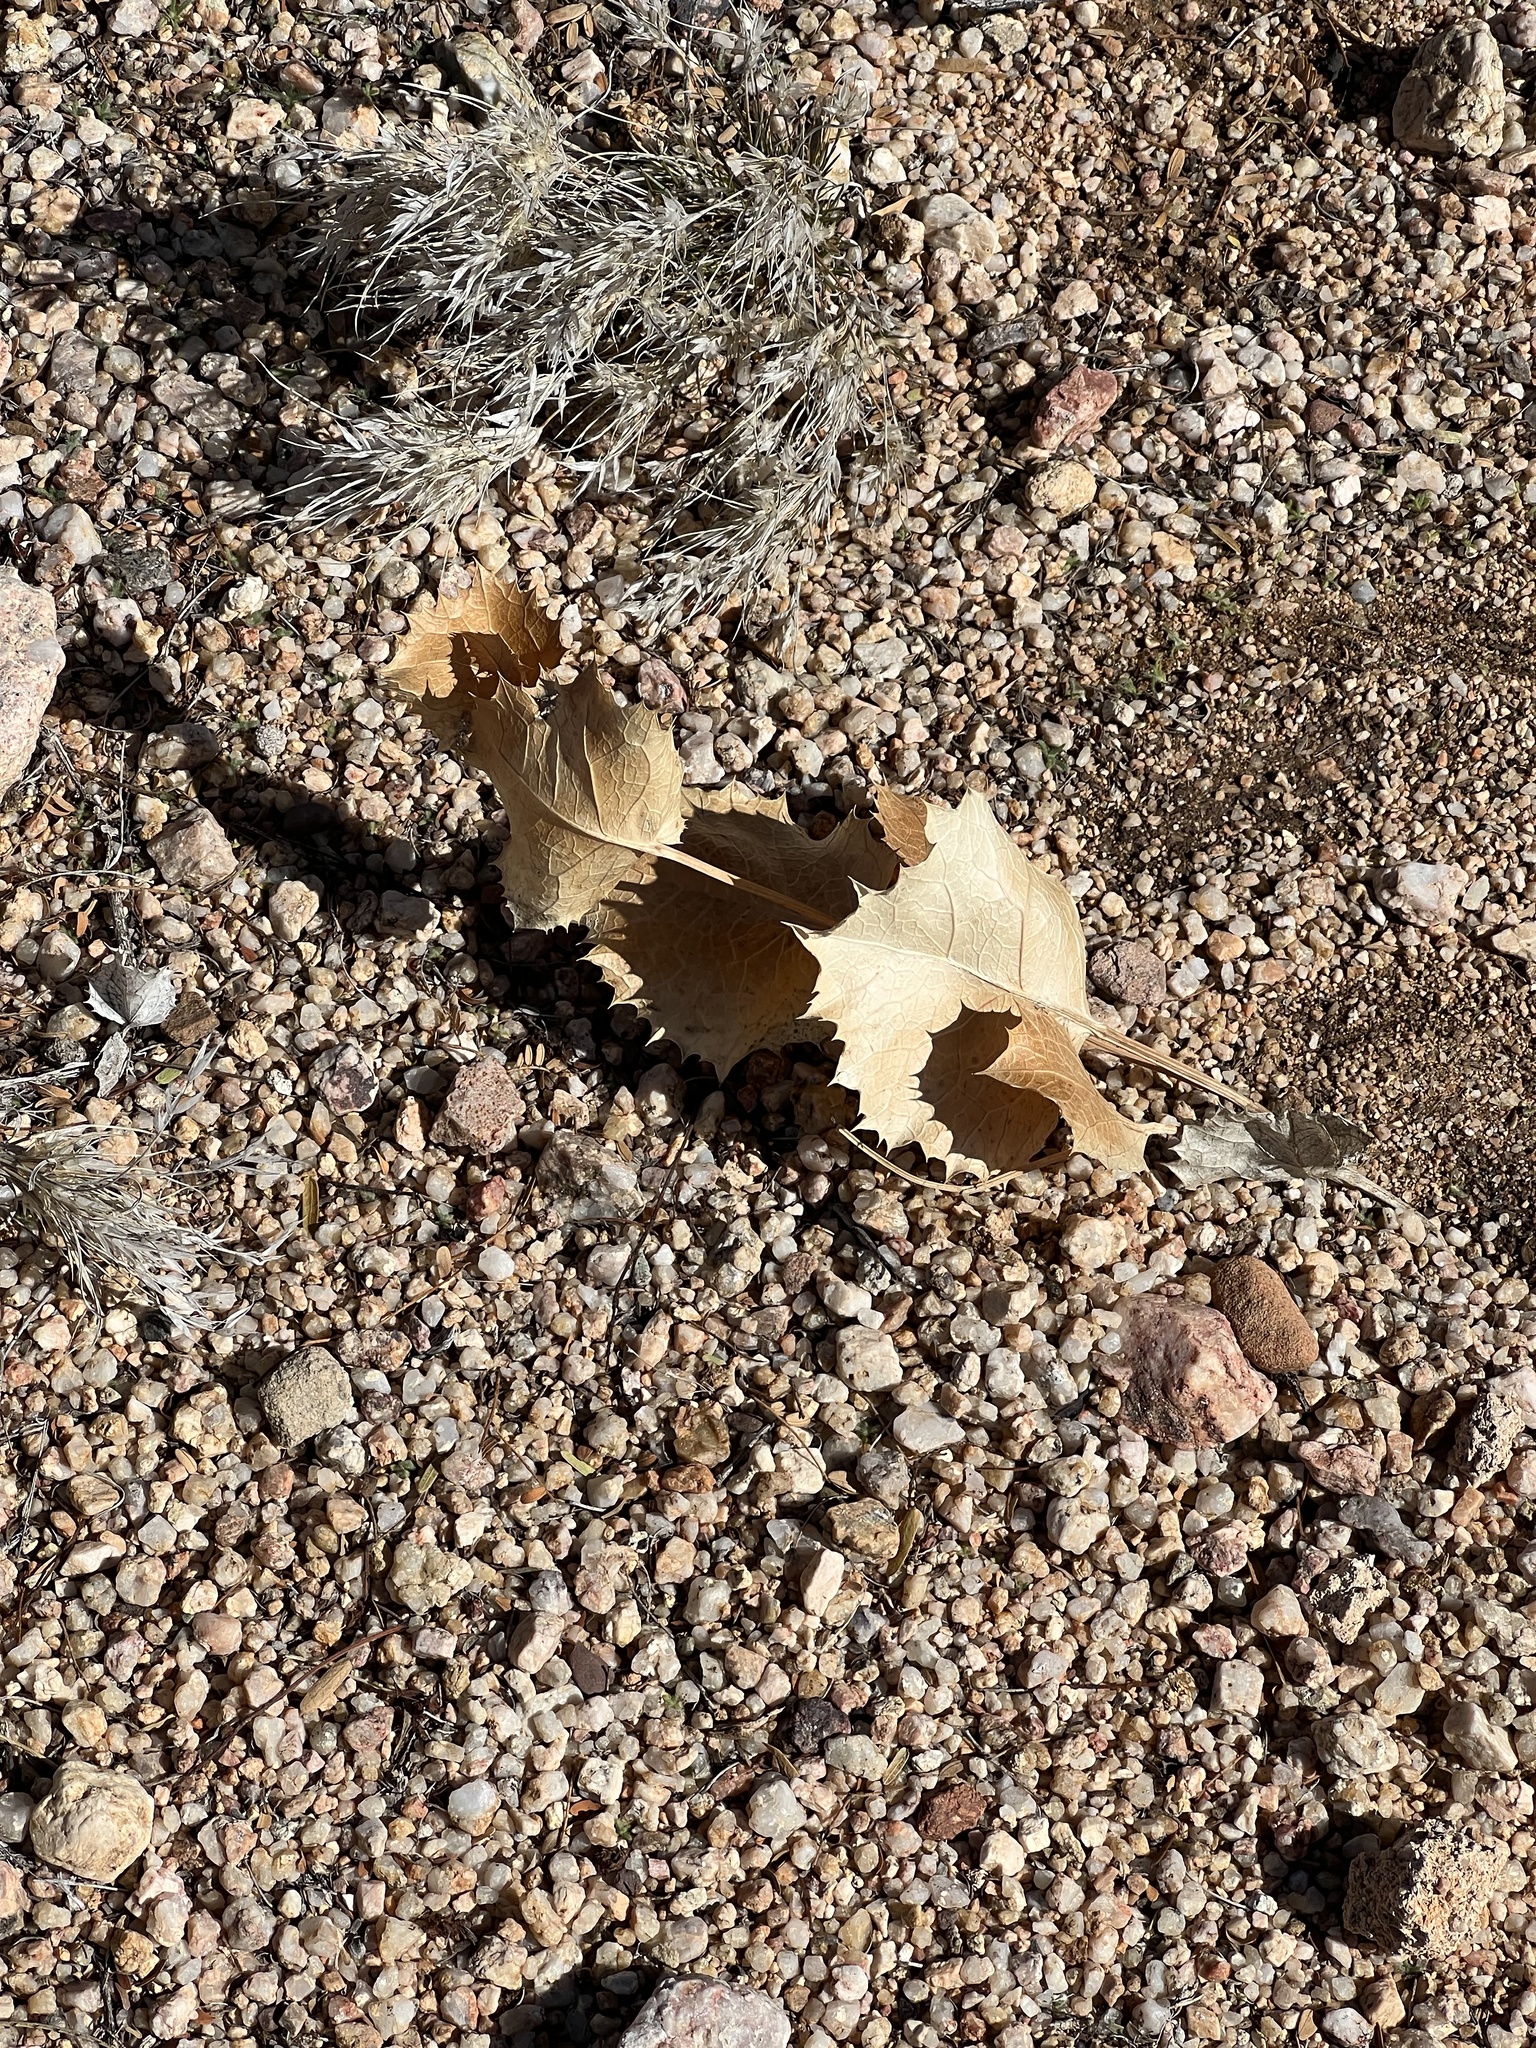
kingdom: Plantae
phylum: Tracheophyta
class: Magnoliopsida
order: Asterales
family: Asteraceae
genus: Acourtia
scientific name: Acourtia nana
